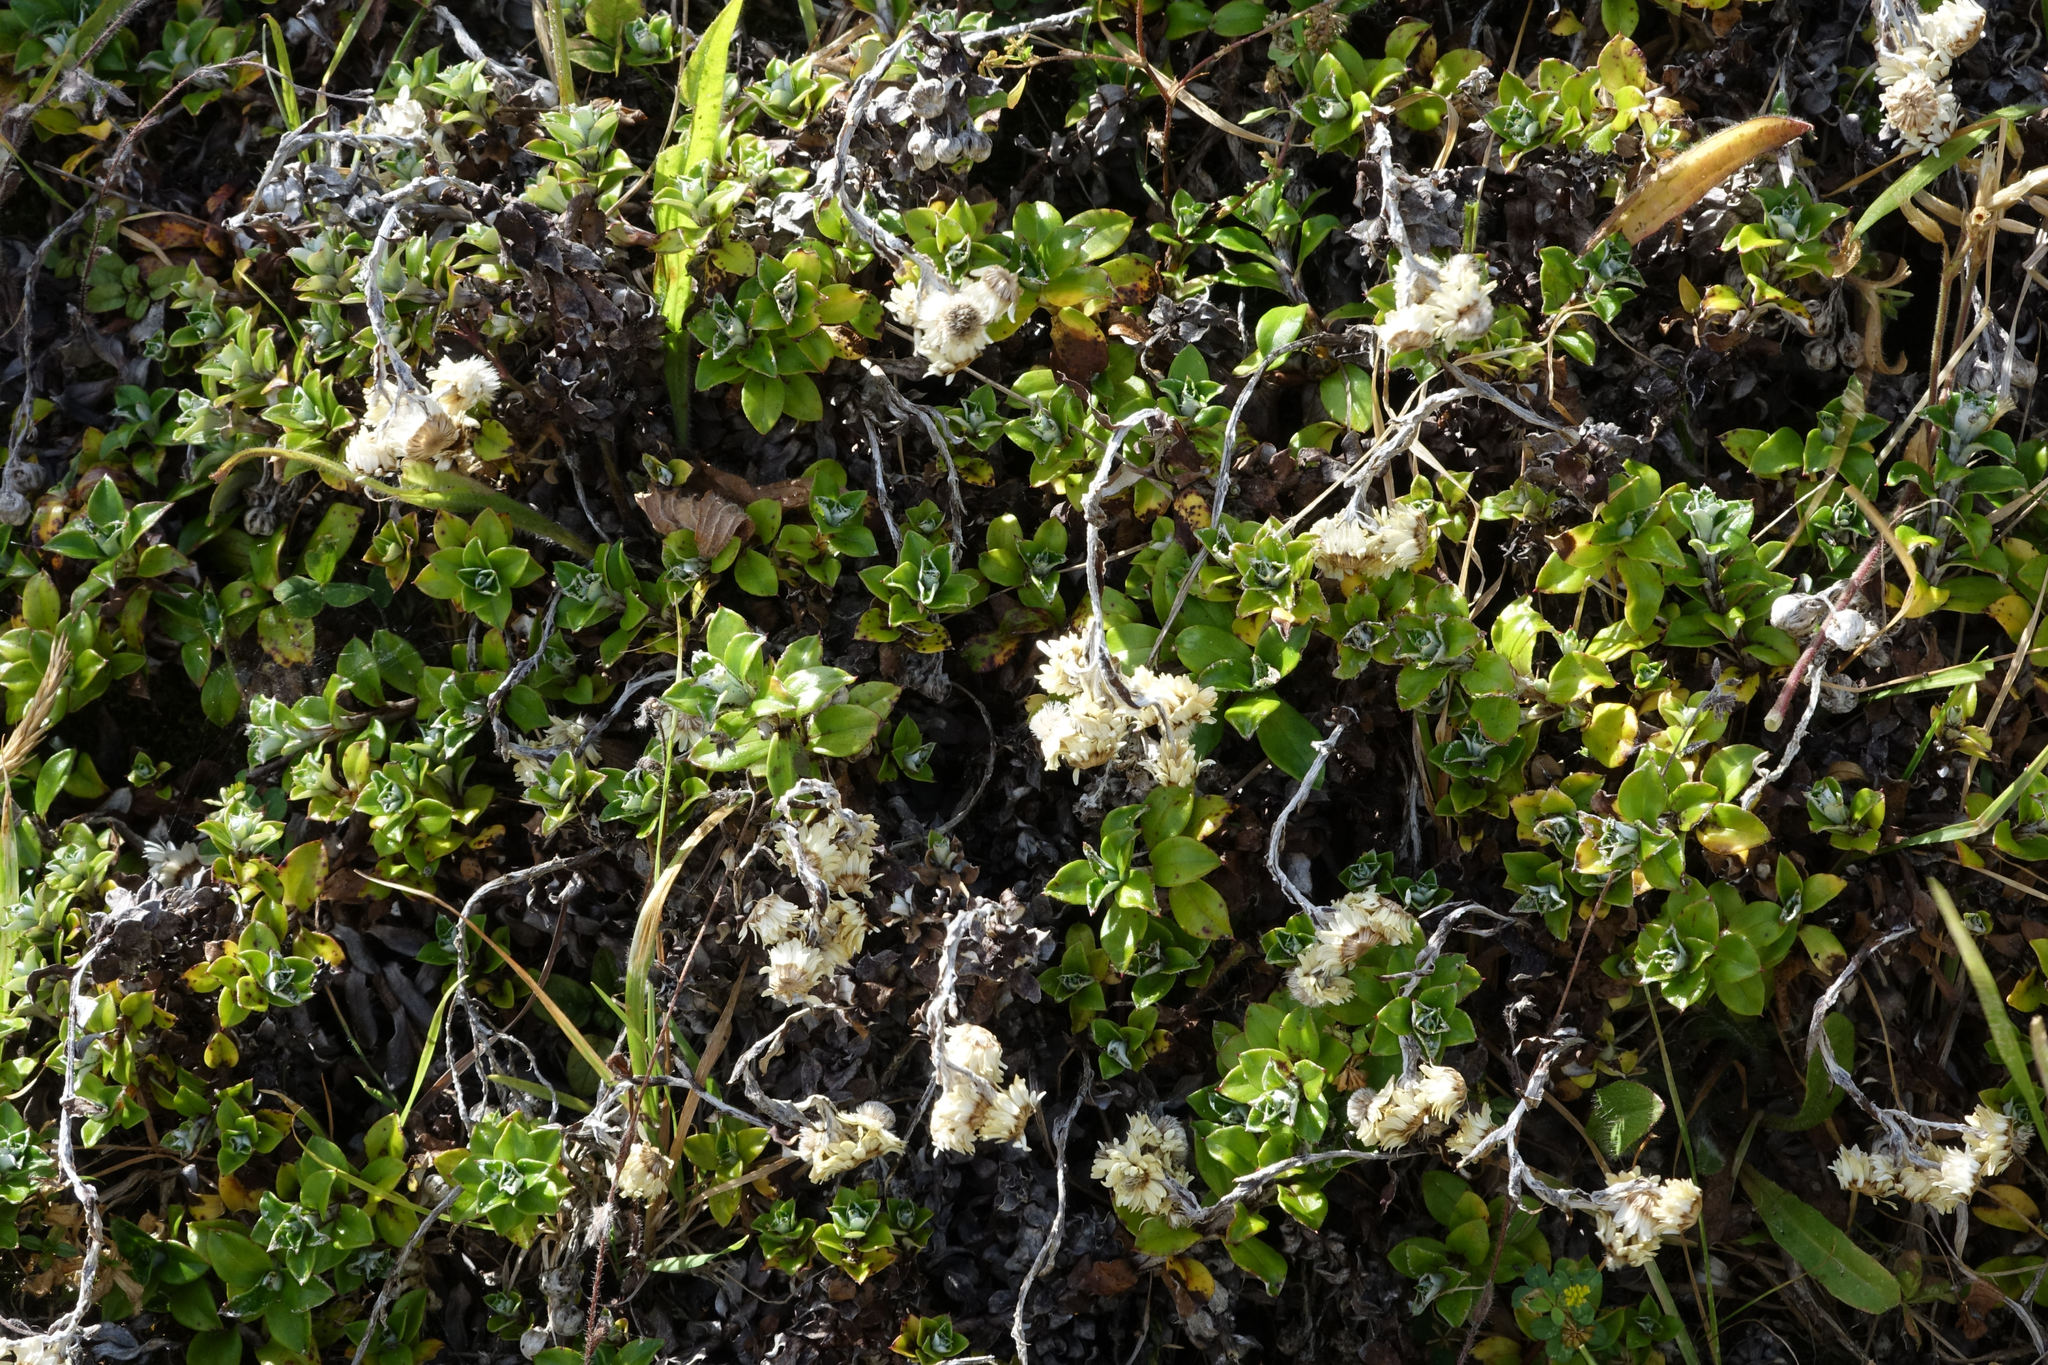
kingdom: Plantae
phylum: Tracheophyta
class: Magnoliopsida
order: Asterales
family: Asteraceae
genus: Anaphalioides
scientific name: Anaphalioides hookeri
